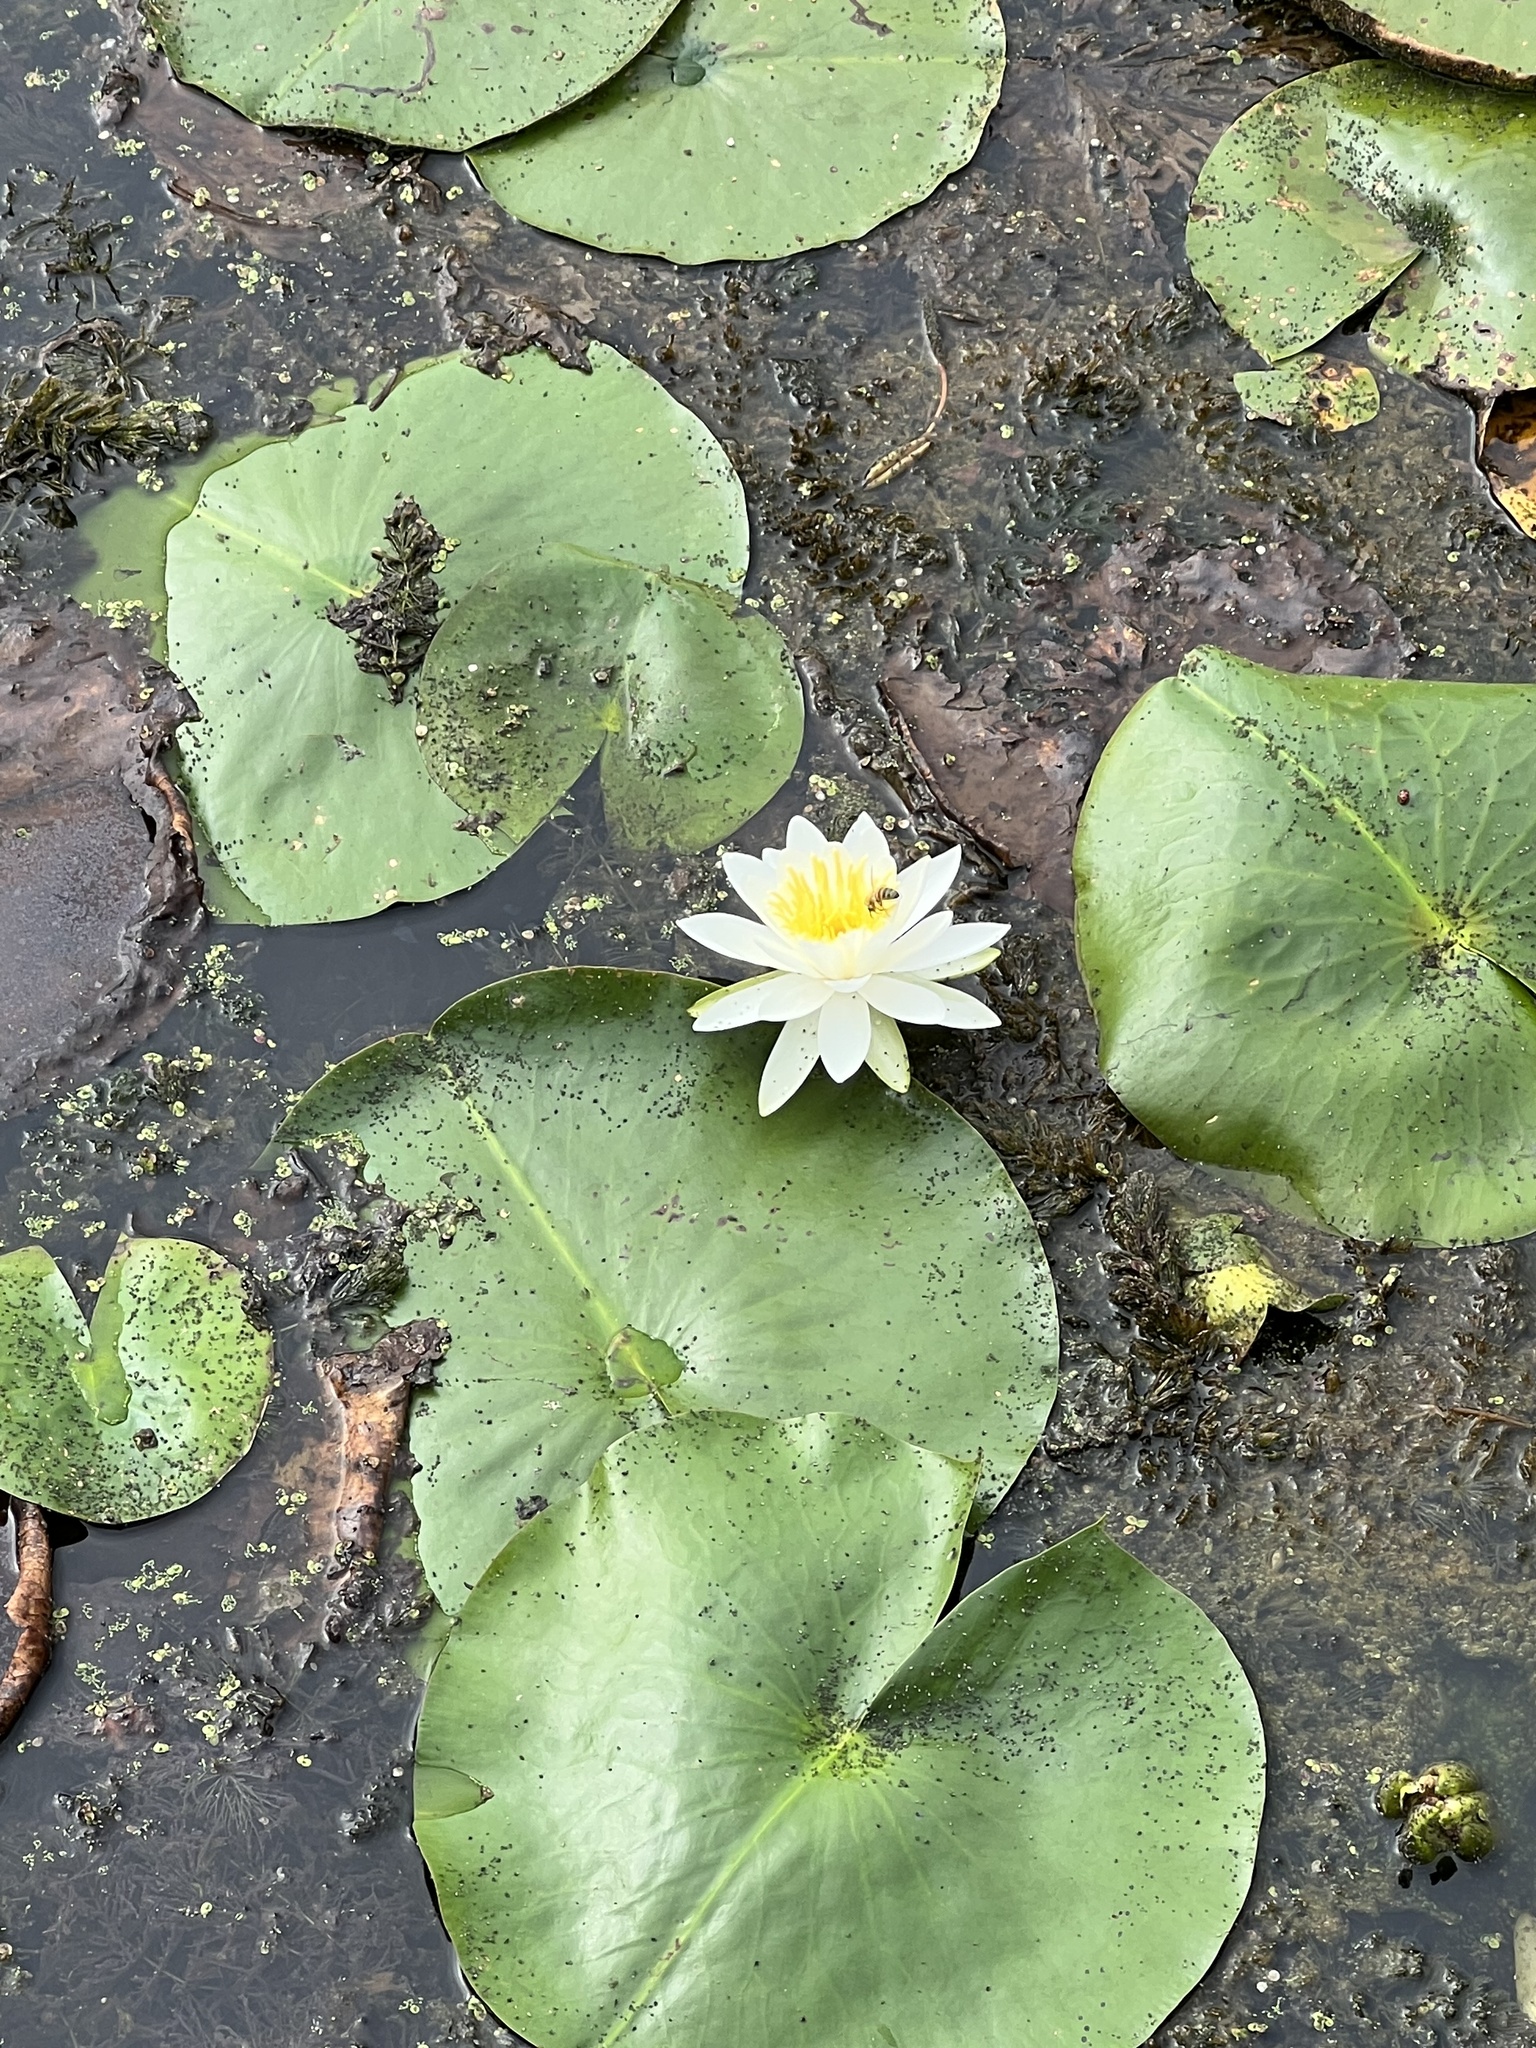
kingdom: Plantae
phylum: Tracheophyta
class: Magnoliopsida
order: Nymphaeales
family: Nymphaeaceae
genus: Nymphaea
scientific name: Nymphaea odorata
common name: Fragrant water-lily
